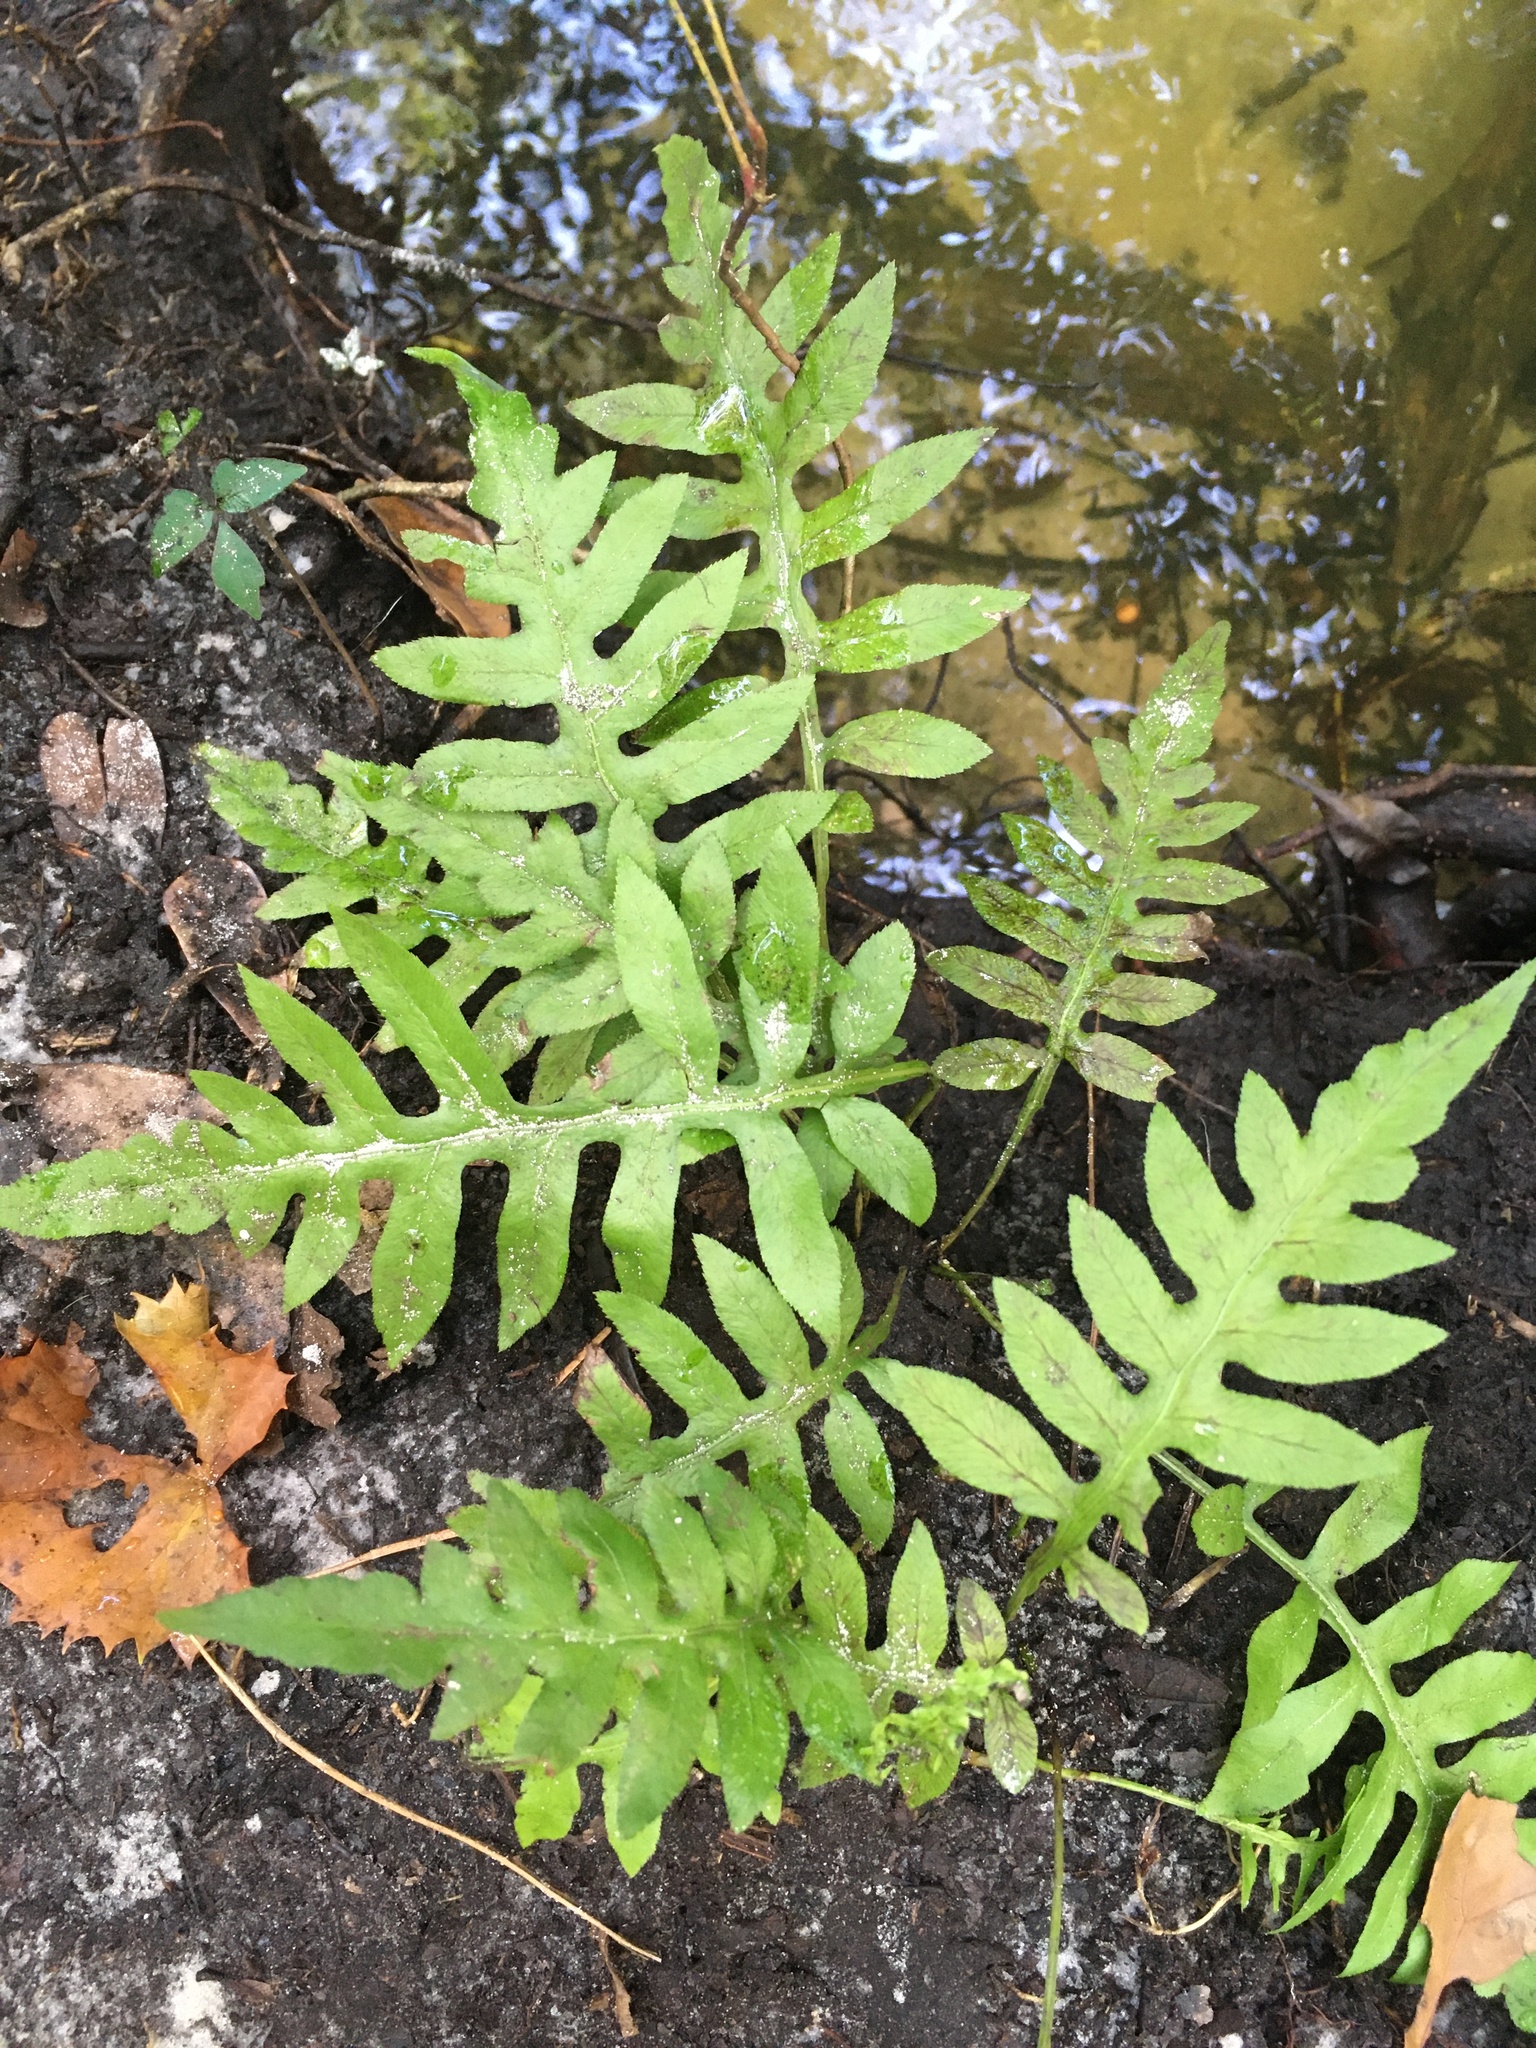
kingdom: Plantae
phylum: Tracheophyta
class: Polypodiopsida
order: Polypodiales
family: Blechnaceae
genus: Lorinseria
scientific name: Lorinseria areolata
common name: Dwarf chain fern
